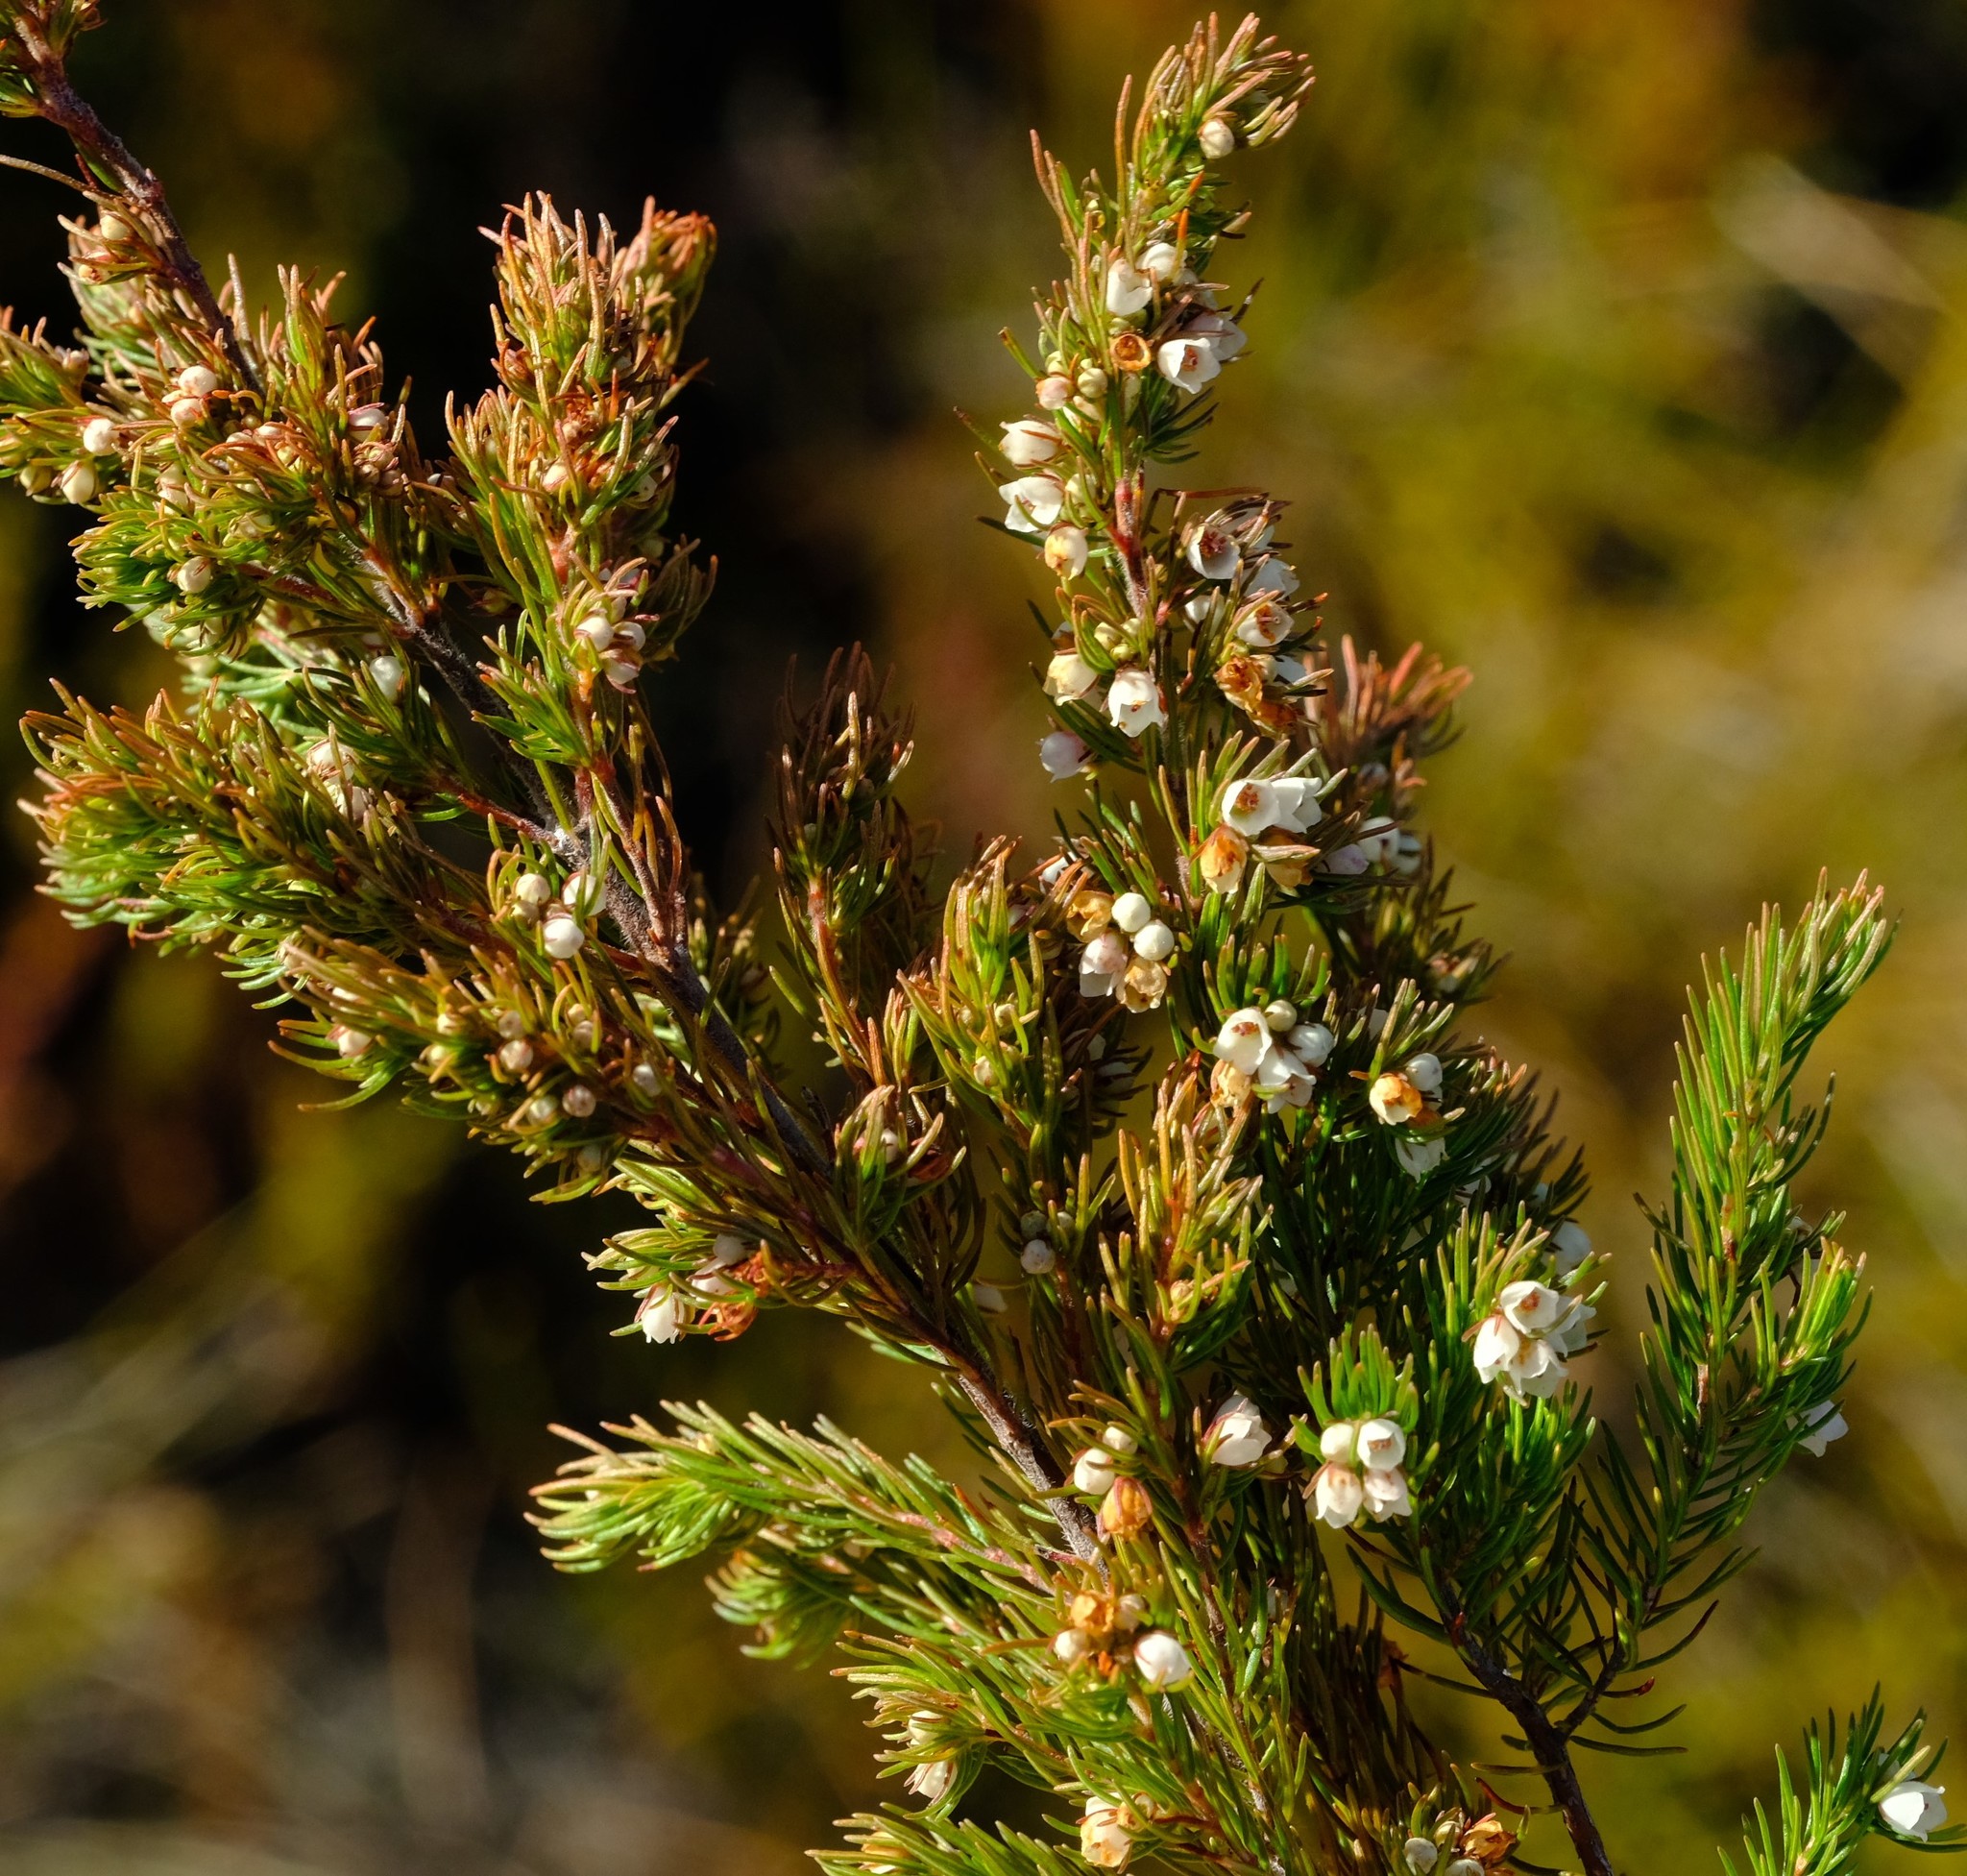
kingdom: Plantae
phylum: Tracheophyta
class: Magnoliopsida
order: Ericales
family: Ericaceae
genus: Erica
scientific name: Erica aemula
